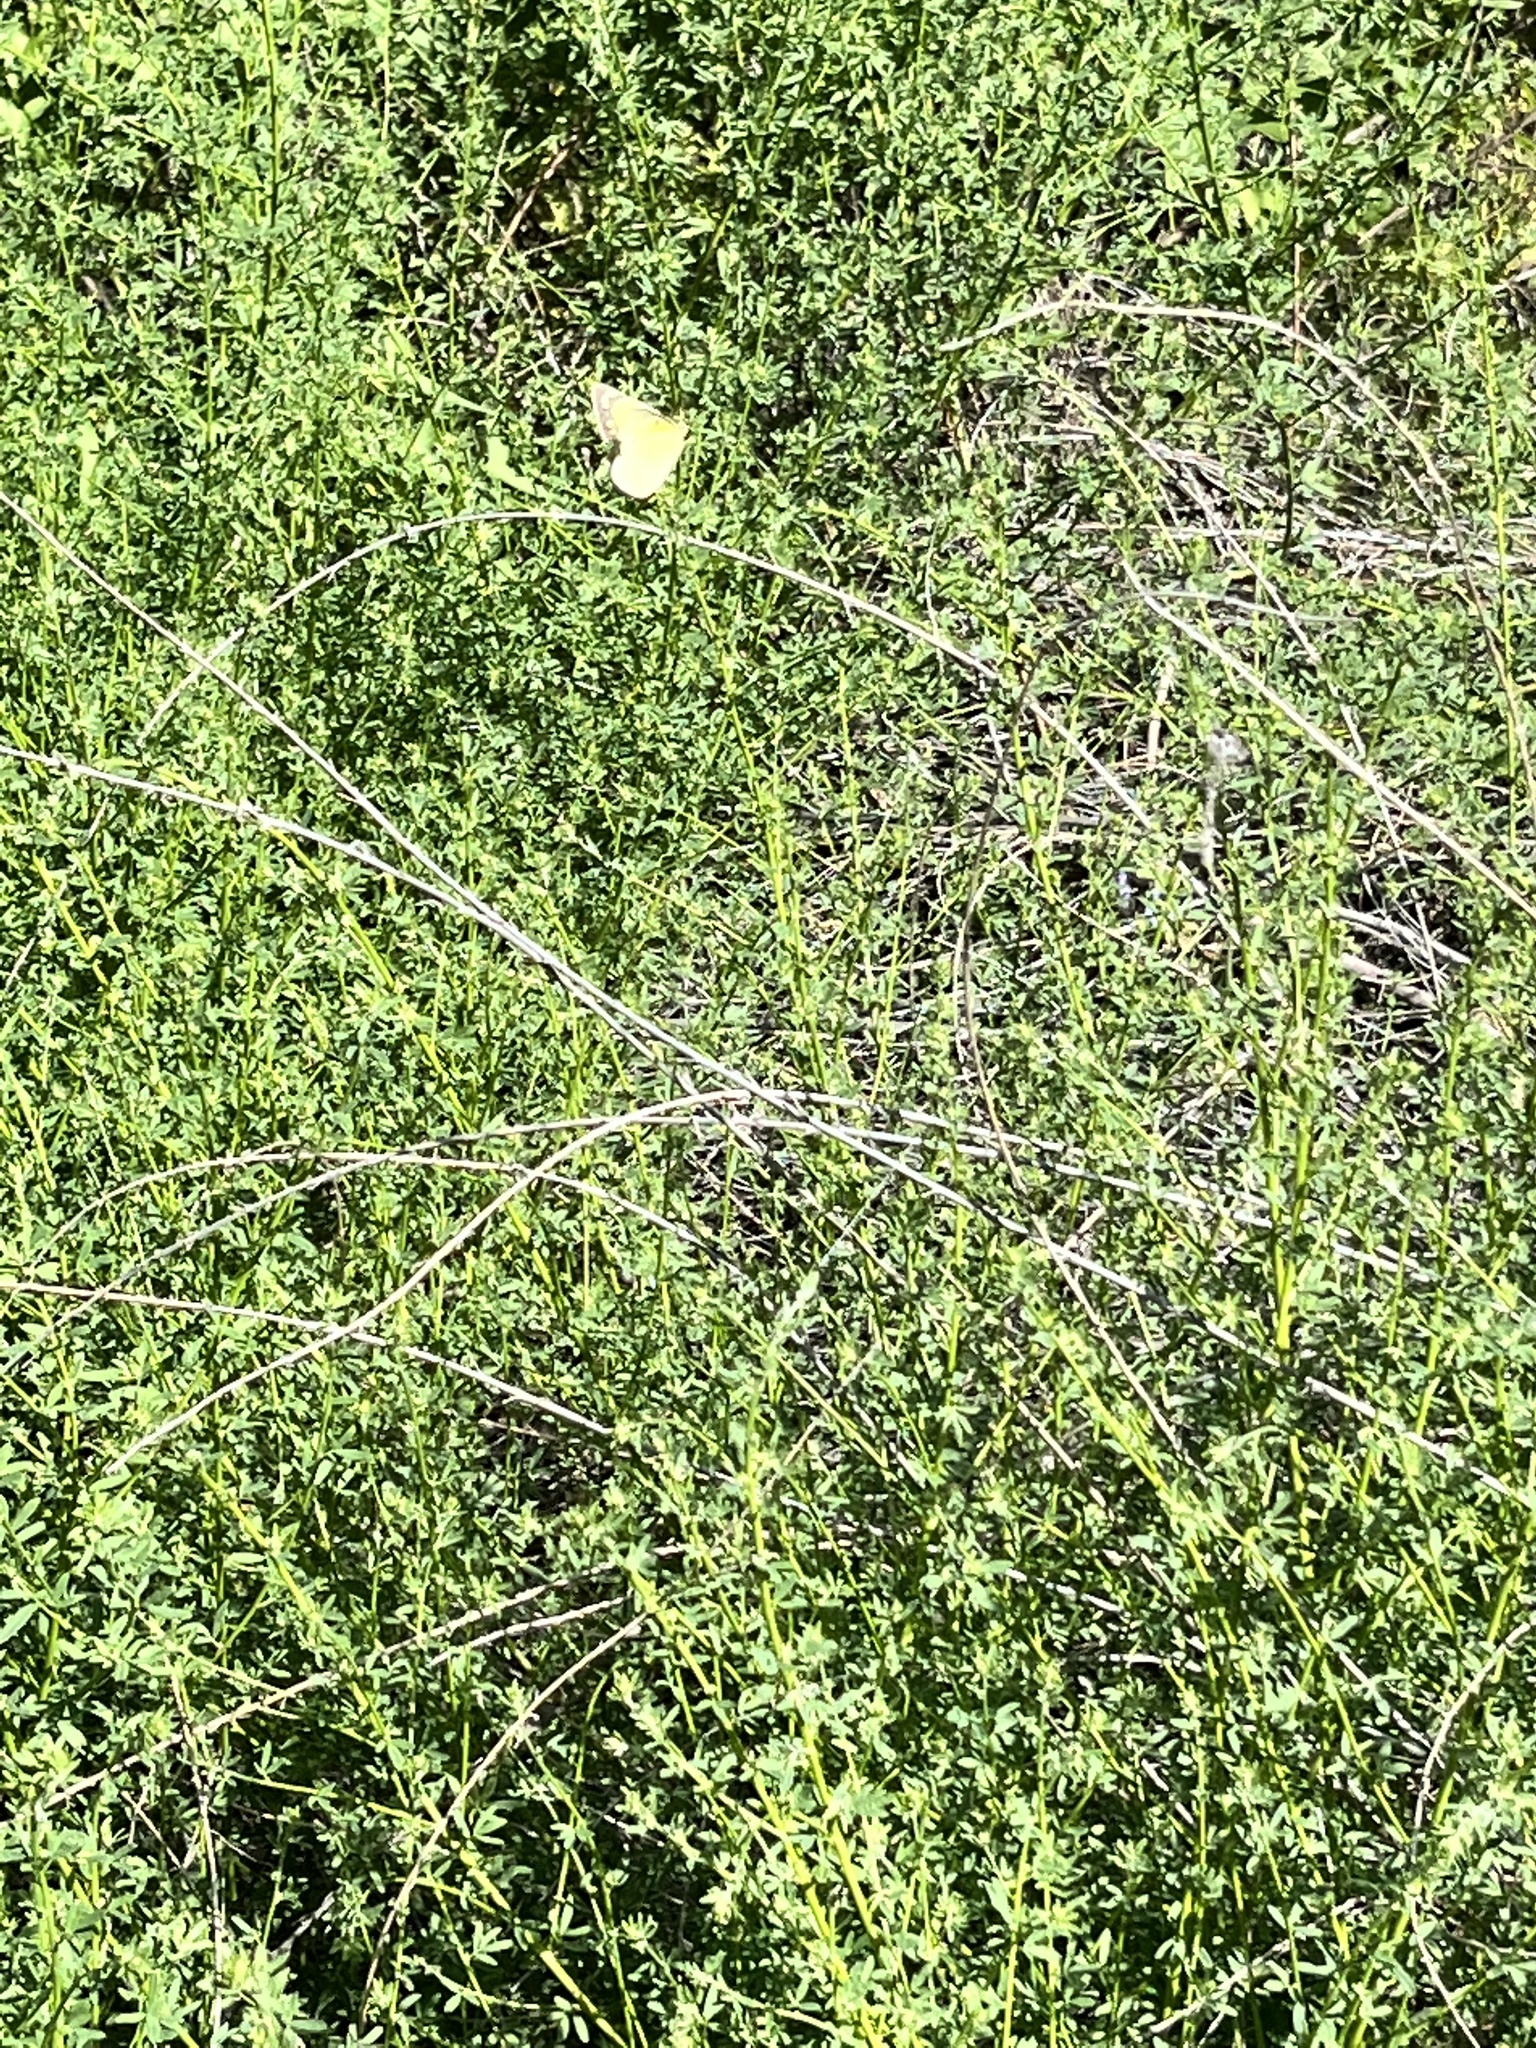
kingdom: Plantae
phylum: Tracheophyta
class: Magnoliopsida
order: Lamiales
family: Phrymaceae
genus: Diplacus
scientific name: Diplacus longiflorus
